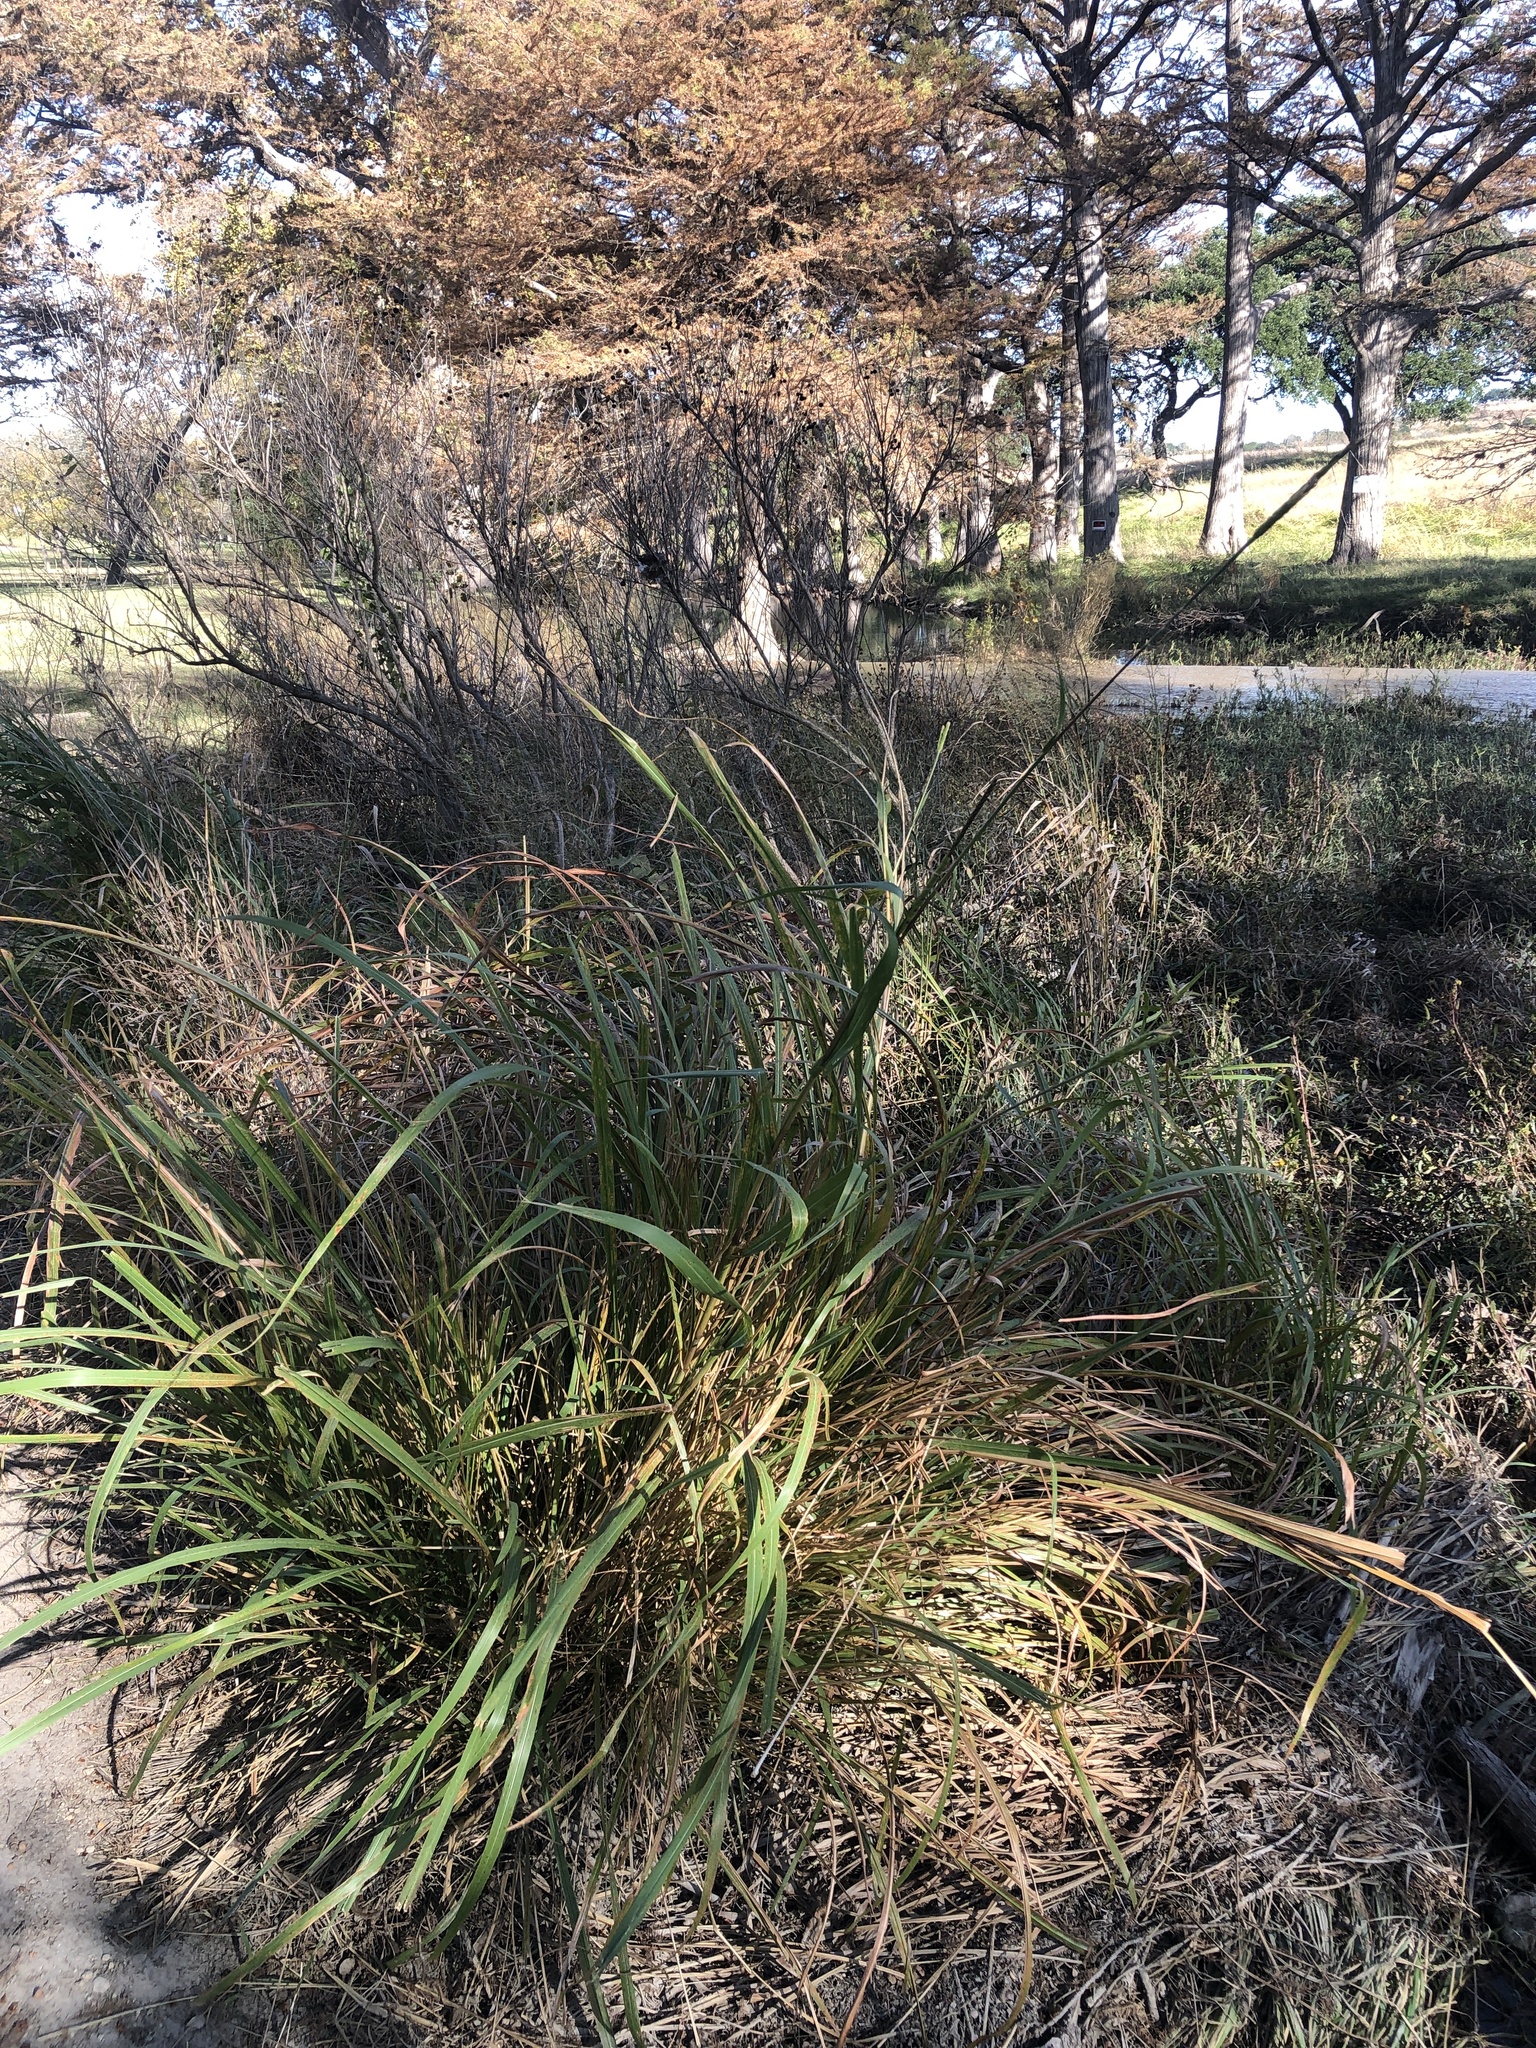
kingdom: Plantae
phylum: Tracheophyta
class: Liliopsida
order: Poales
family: Poaceae
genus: Tripsacum
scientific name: Tripsacum dactyloides
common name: Buffalo-grass
